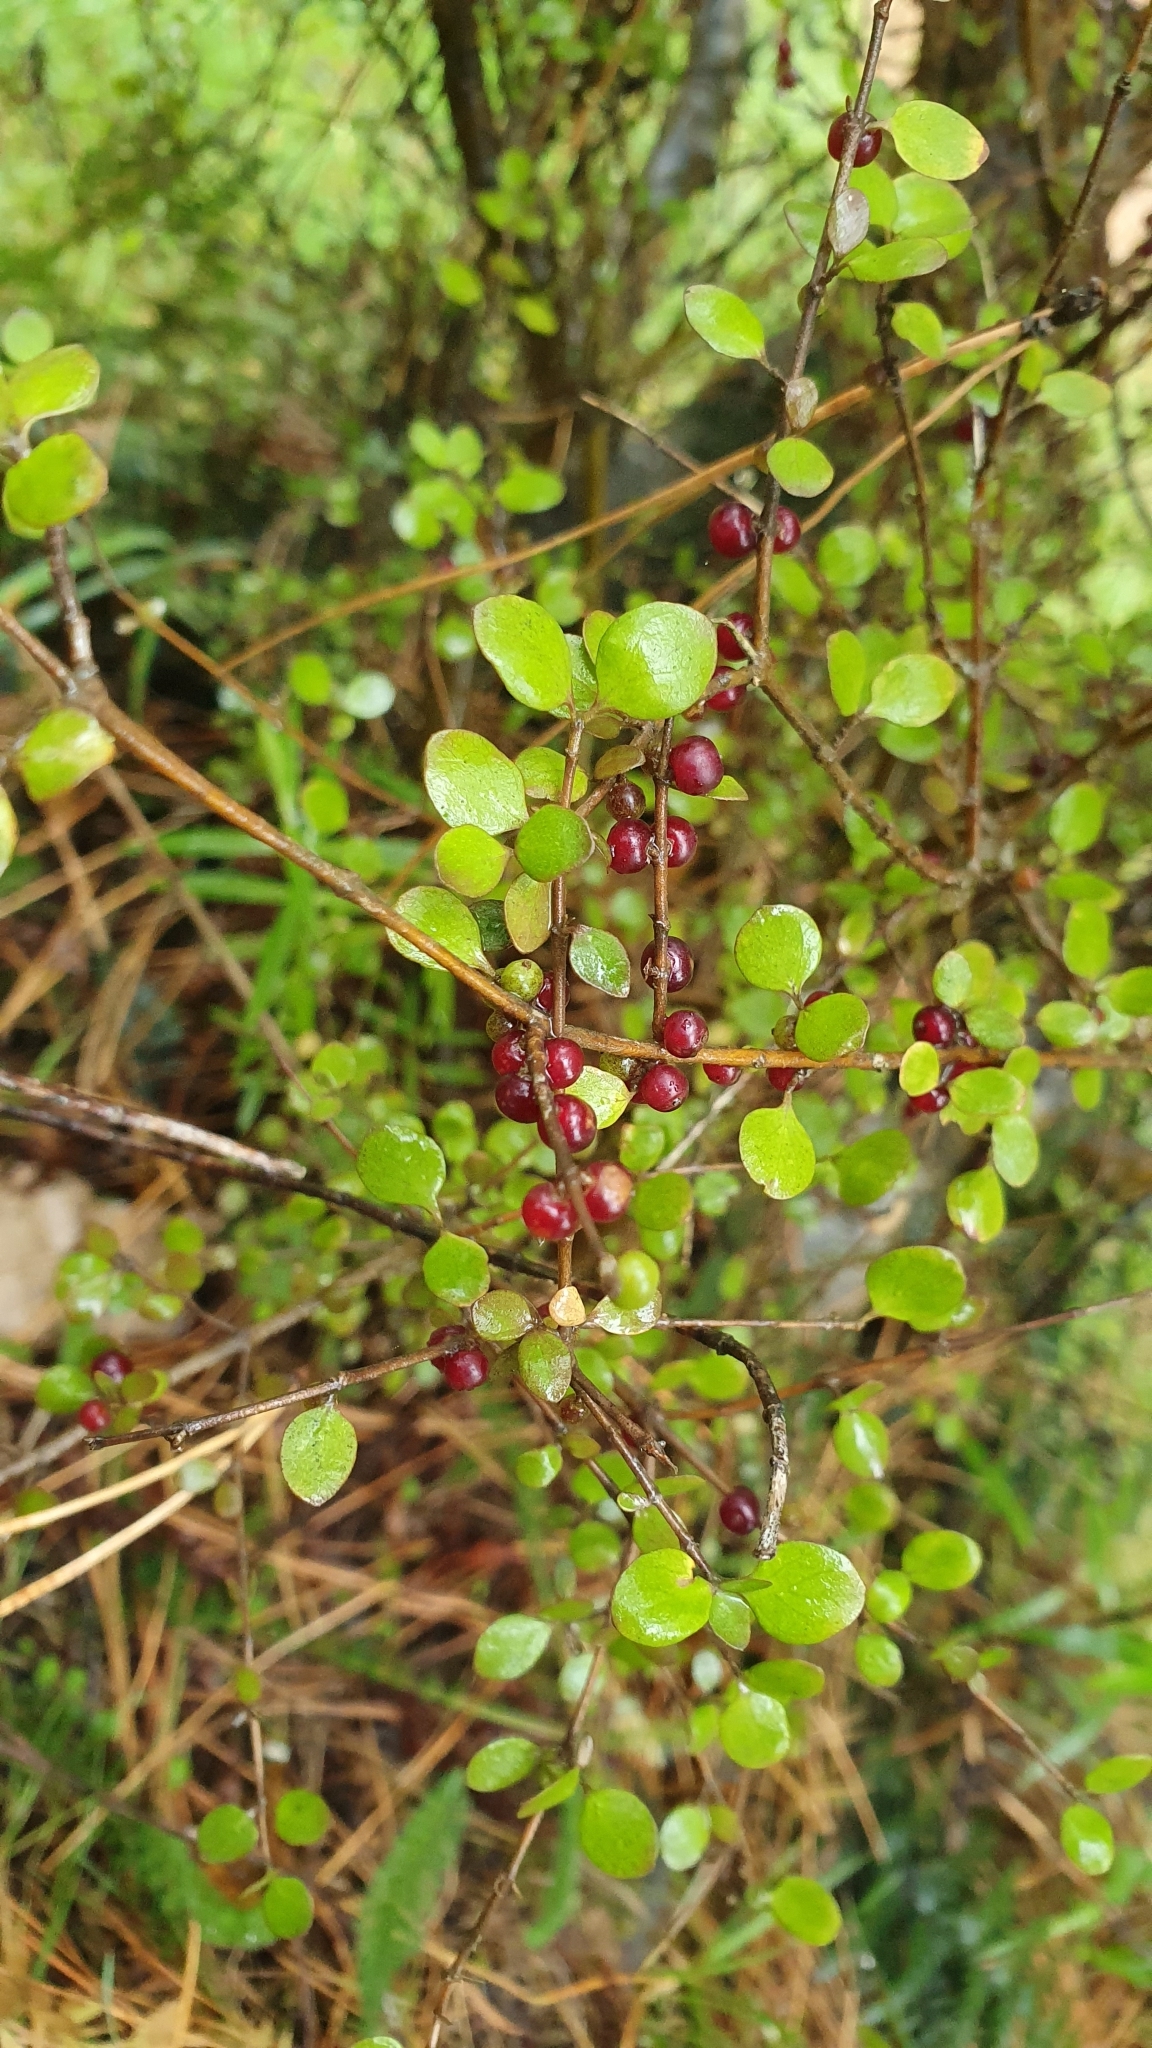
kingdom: Plantae
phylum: Tracheophyta
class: Magnoliopsida
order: Gentianales
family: Rubiaceae
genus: Coprosma
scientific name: Coprosma rhamnoides
